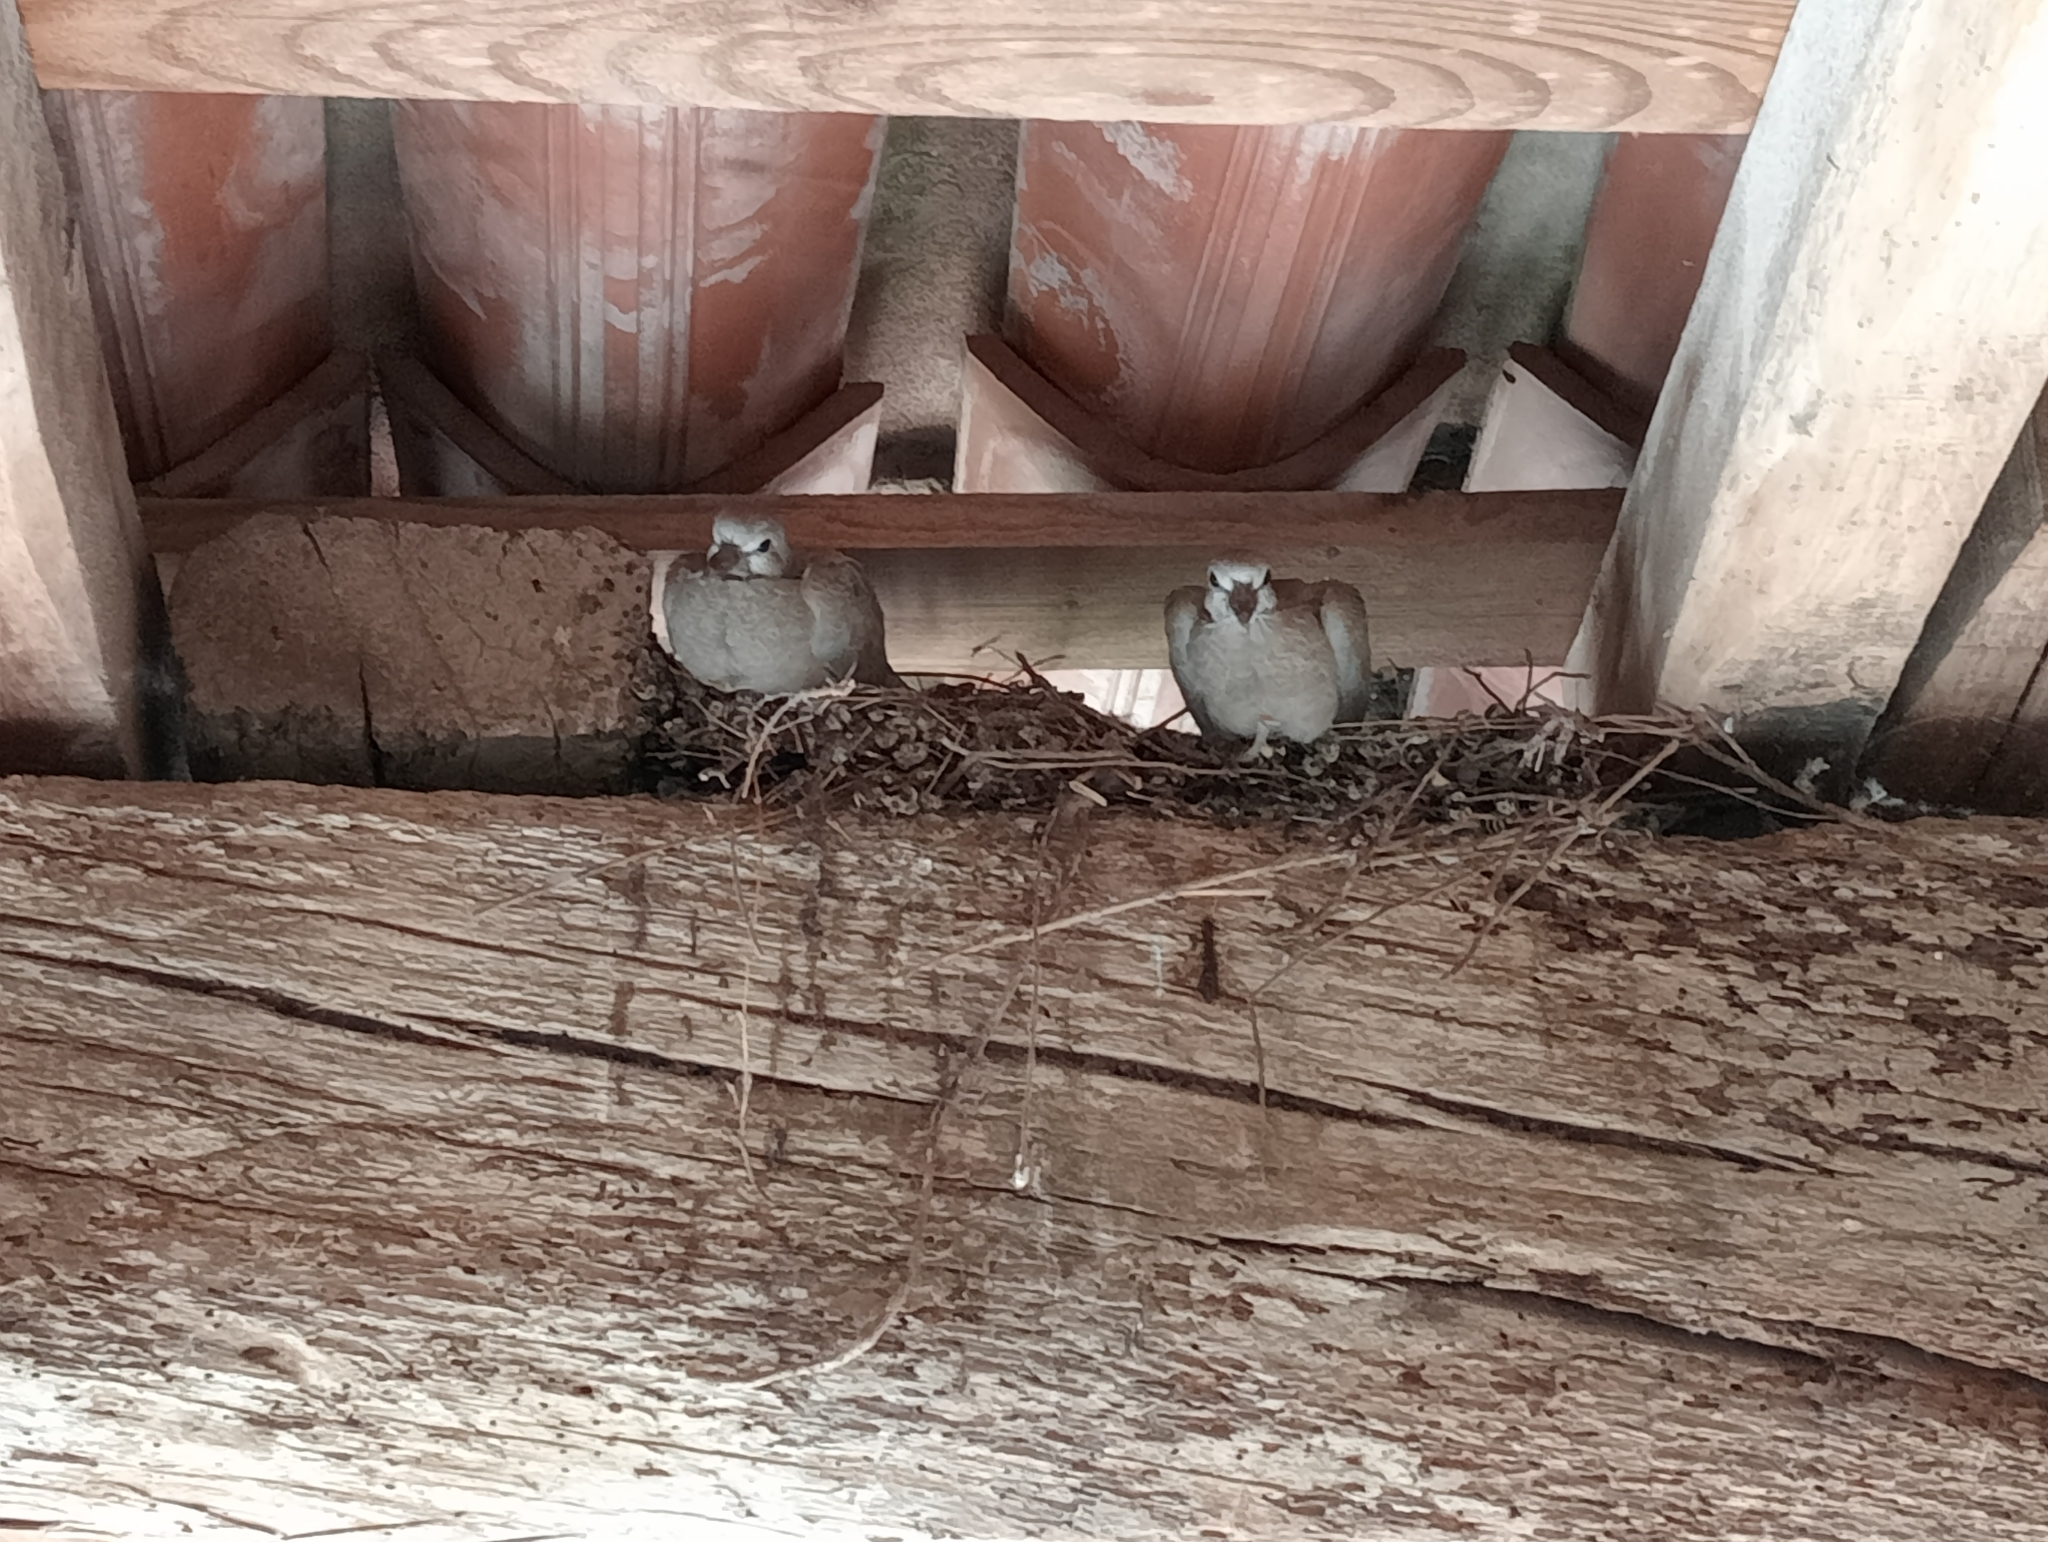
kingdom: Animalia
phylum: Chordata
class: Aves
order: Columbiformes
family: Columbidae
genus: Streptopelia
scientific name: Streptopelia decaocto
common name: Eurasian collared dove
